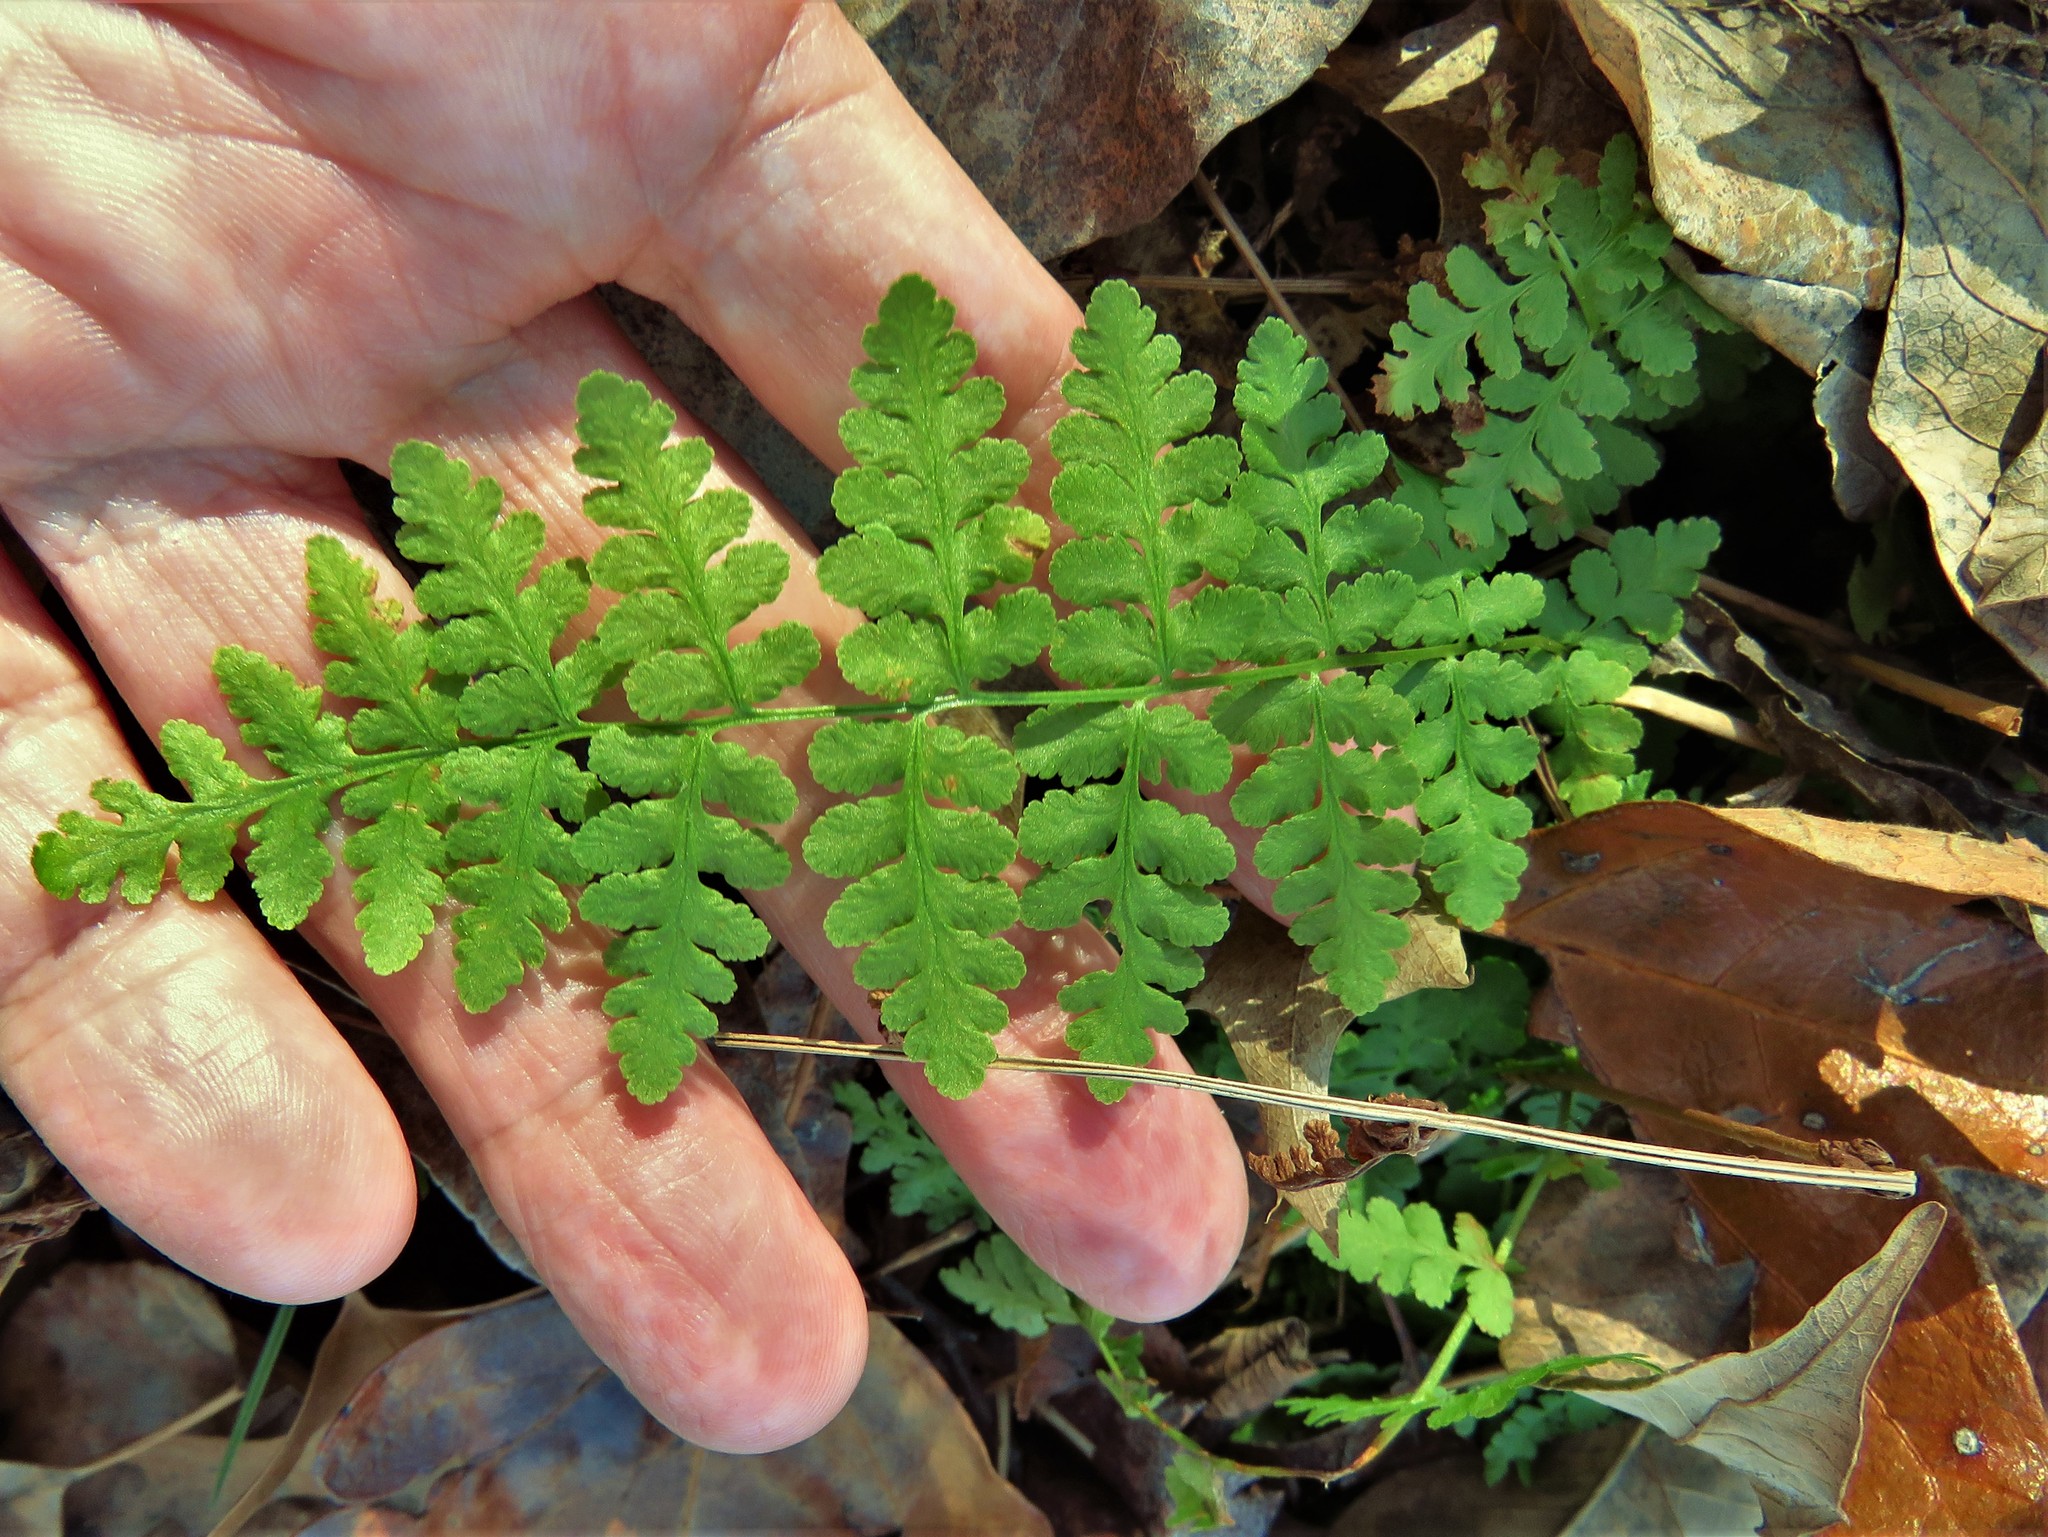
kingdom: Plantae
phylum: Tracheophyta
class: Polypodiopsida
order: Polypodiales
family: Woodsiaceae
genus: Physematium
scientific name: Physematium obtusum
